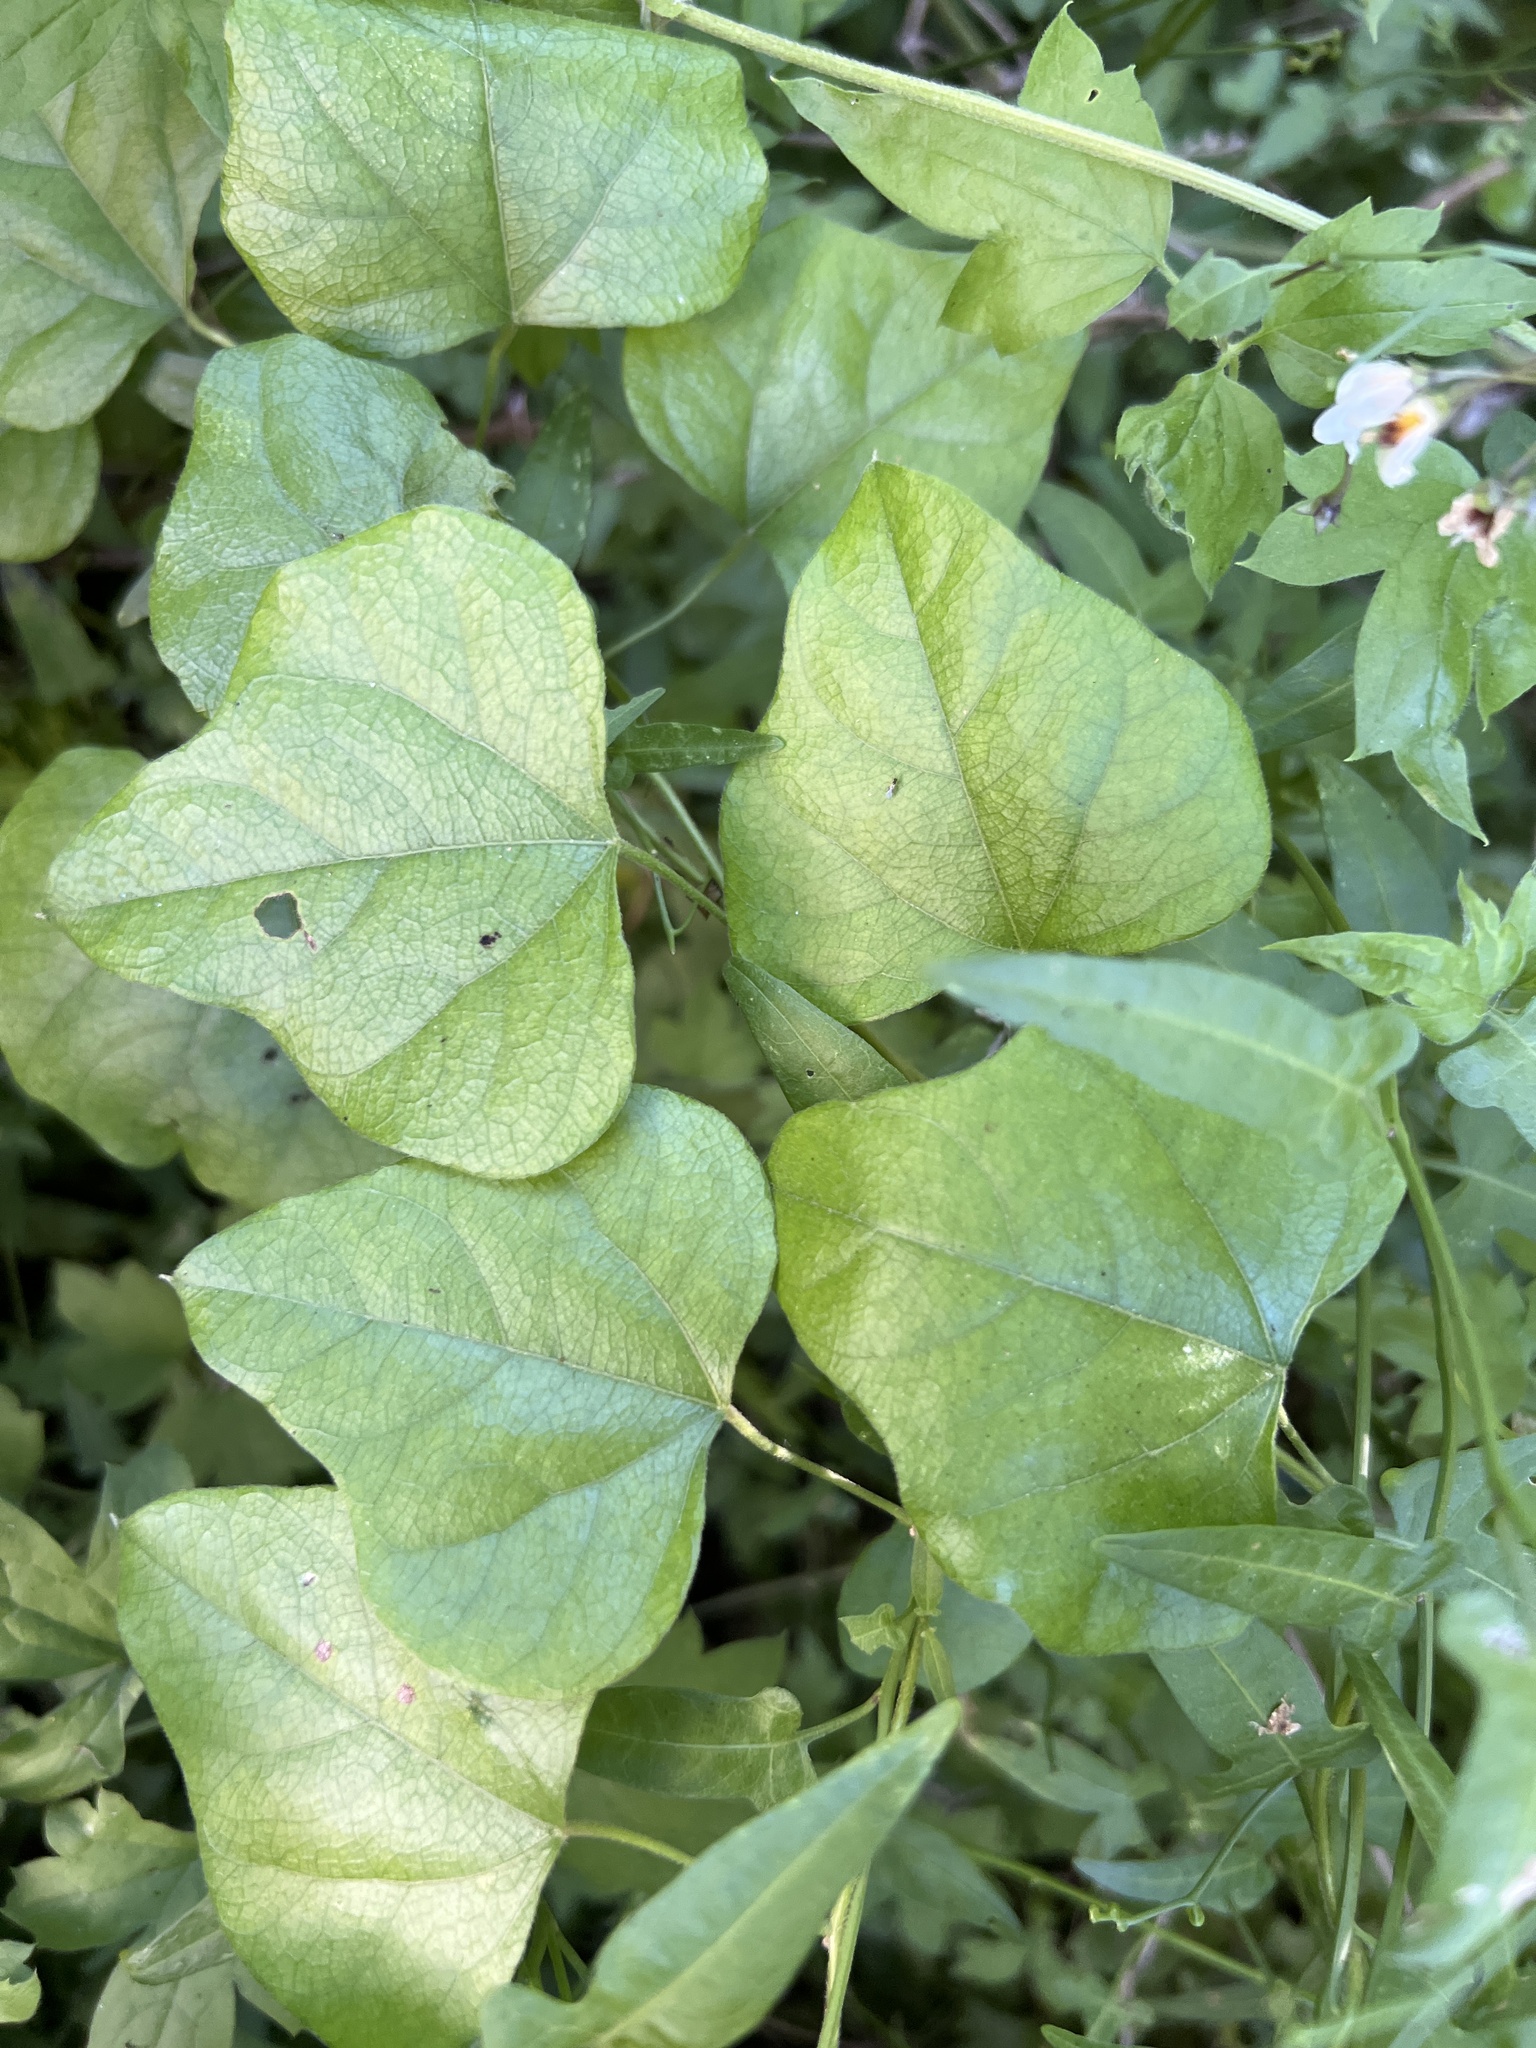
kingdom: Plantae
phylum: Tracheophyta
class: Magnoliopsida
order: Ranunculales
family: Menispermaceae
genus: Cocculus
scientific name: Cocculus carolinus
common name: Carolina moonseed
